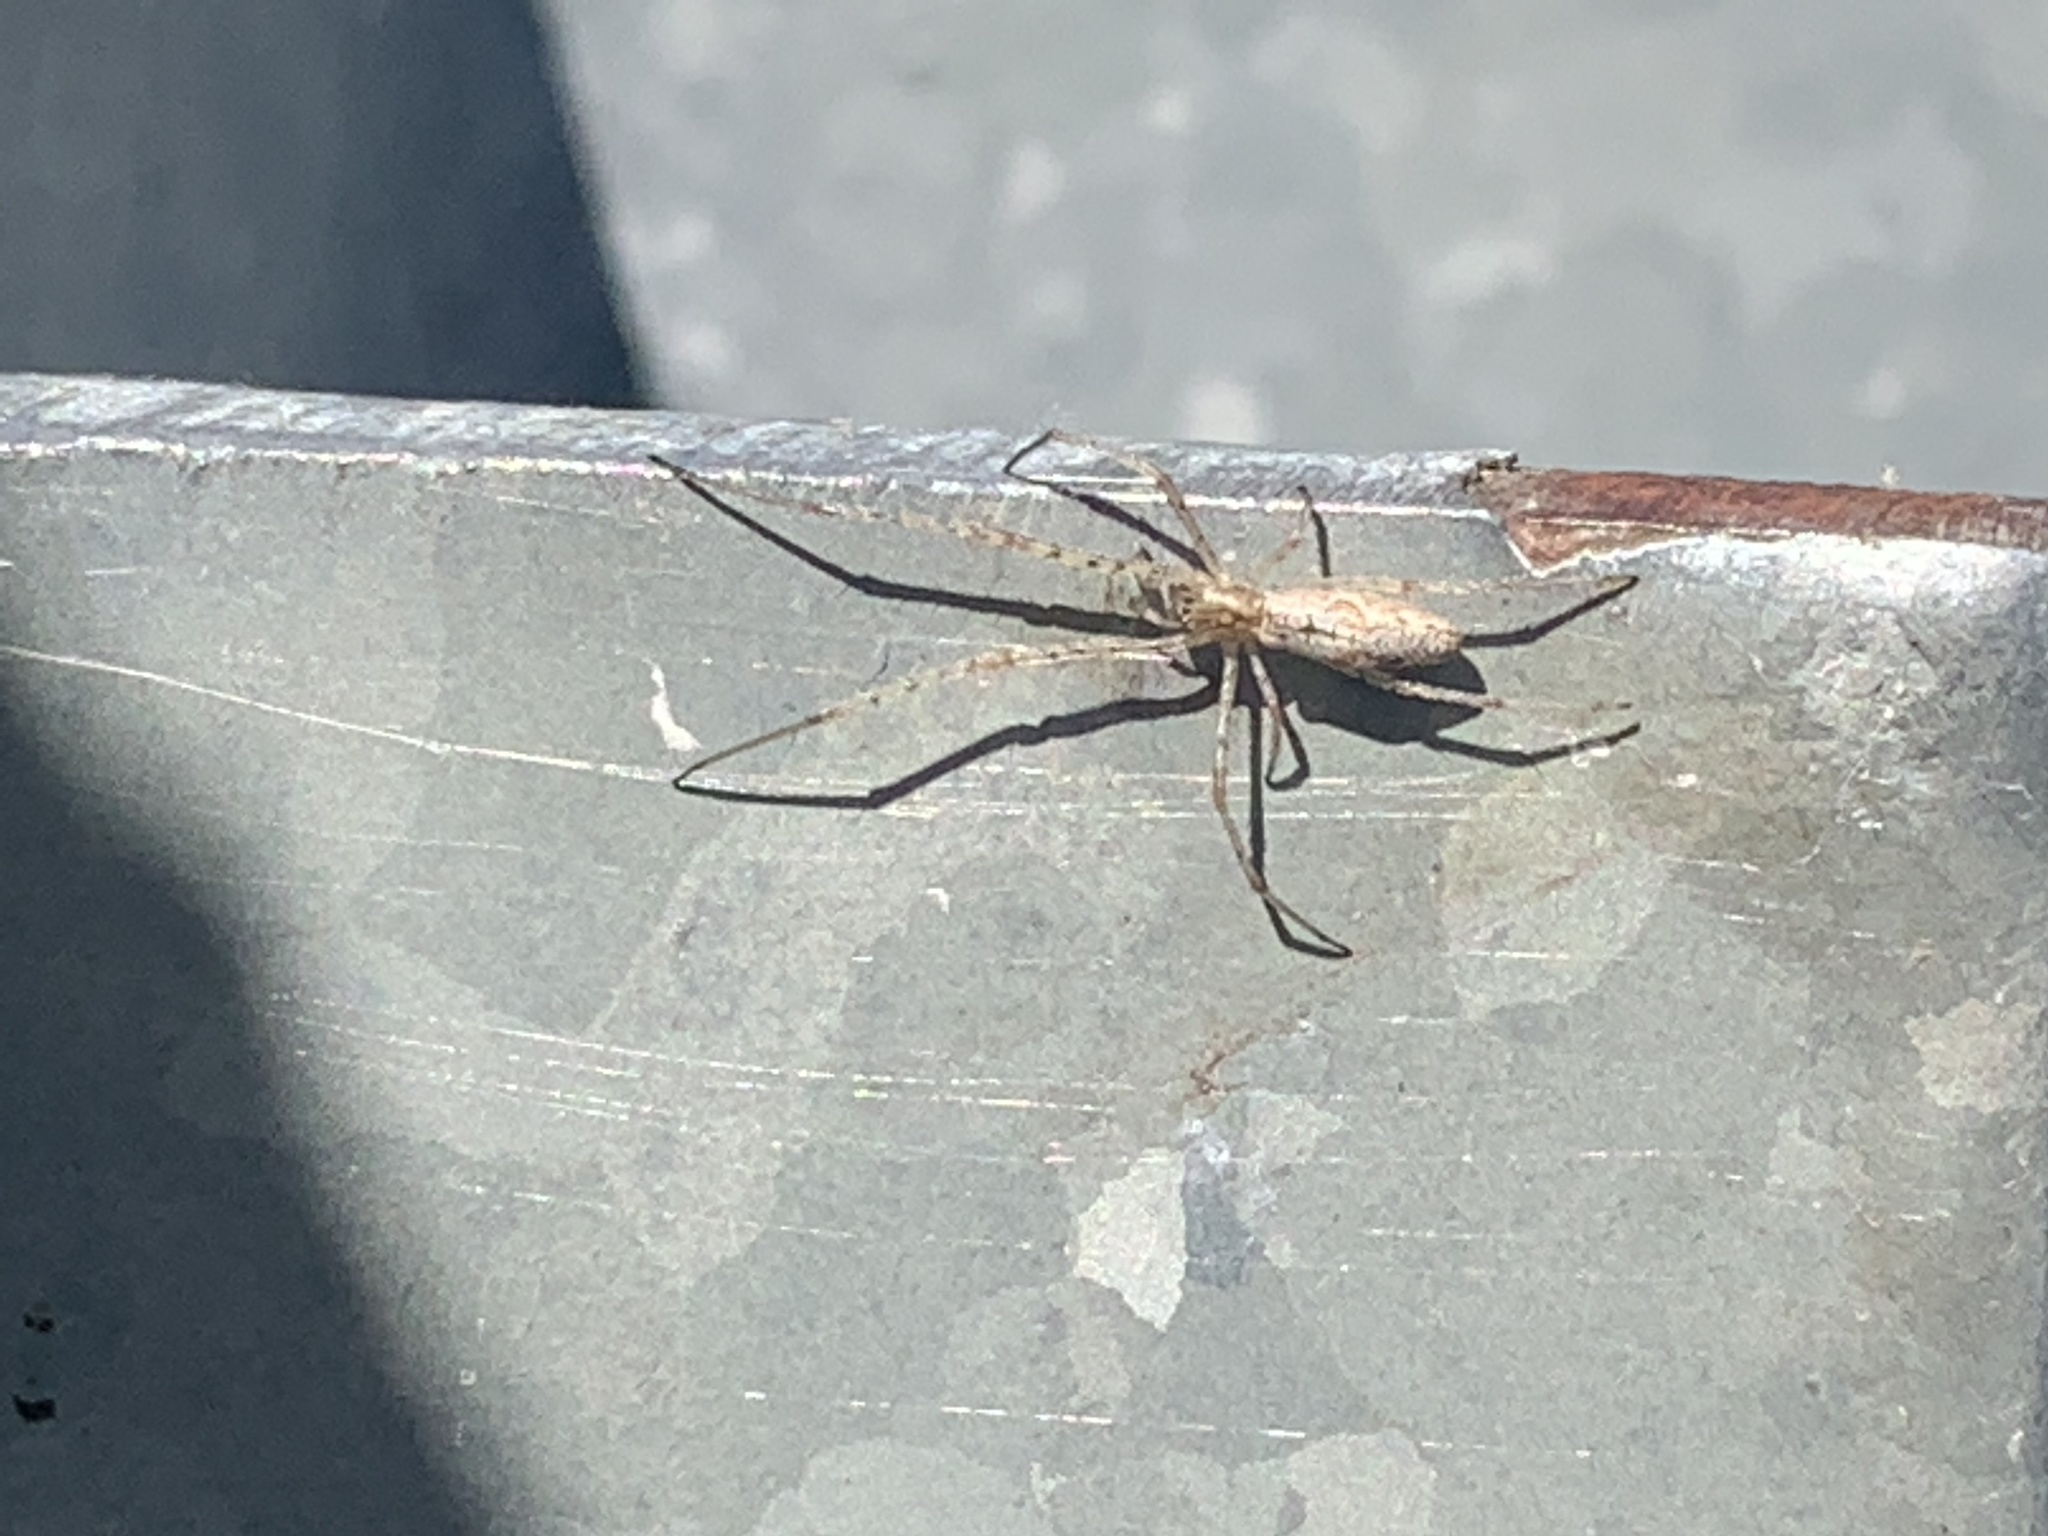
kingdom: Animalia
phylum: Arthropoda
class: Arachnida
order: Araneae
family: Tetragnathidae
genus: Tetragnatha
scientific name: Tetragnatha
